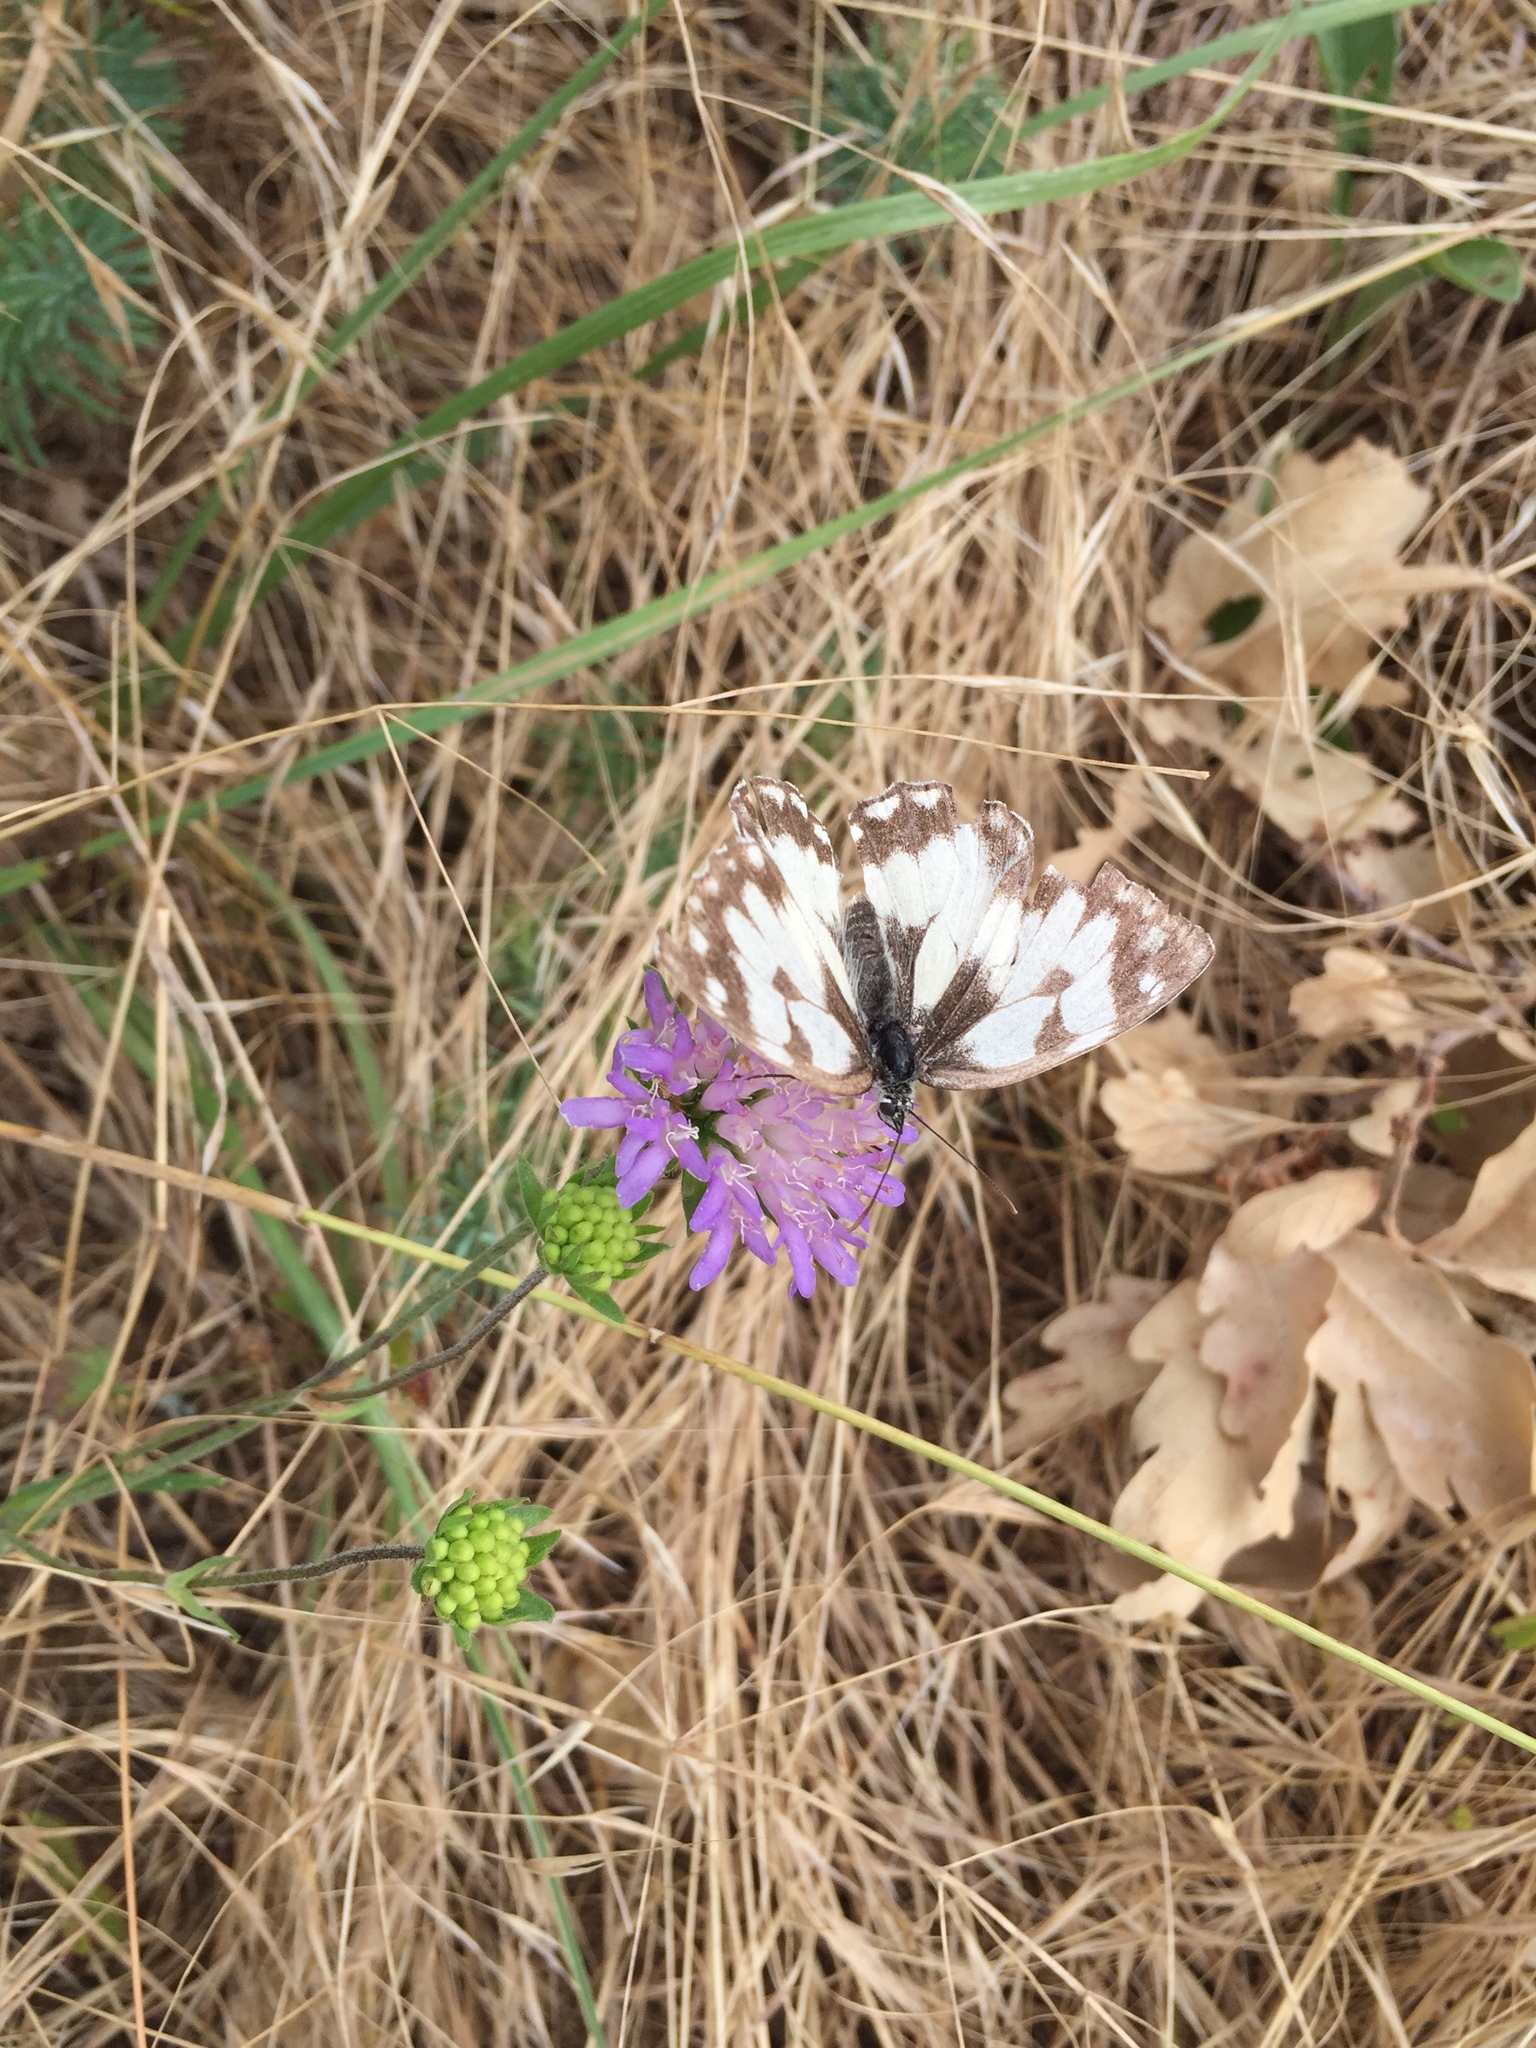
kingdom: Animalia
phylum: Arthropoda
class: Insecta
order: Lepidoptera
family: Nymphalidae
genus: Melanargia
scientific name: Melanargia galathea
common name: Marbled white
